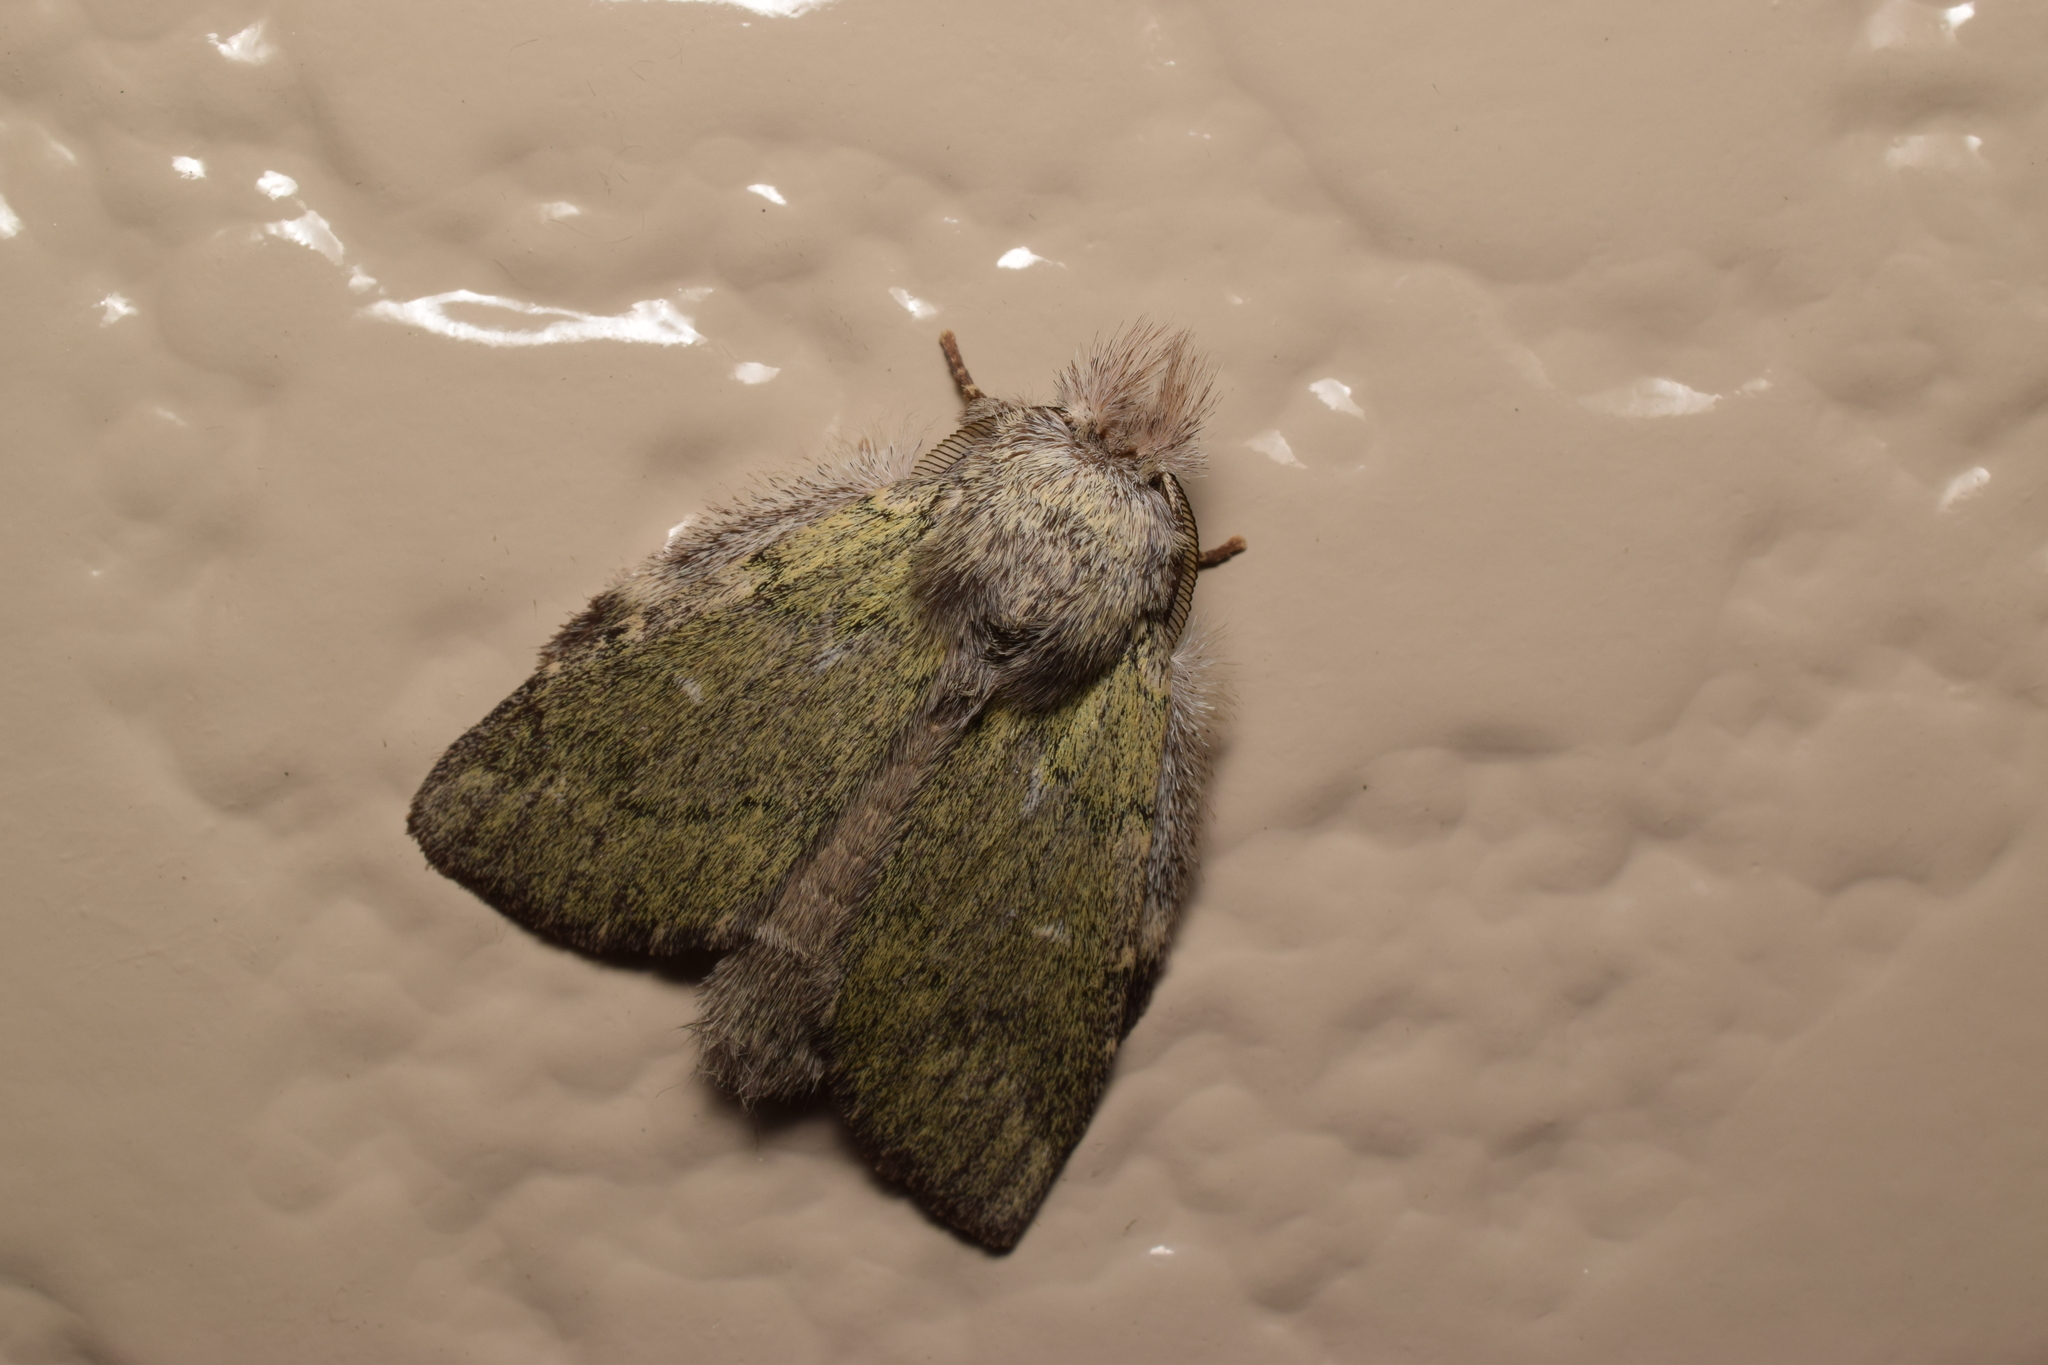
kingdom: Animalia
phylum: Arthropoda
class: Insecta
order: Lepidoptera
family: Notodontidae
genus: Syntypistis
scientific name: Syntypistis
